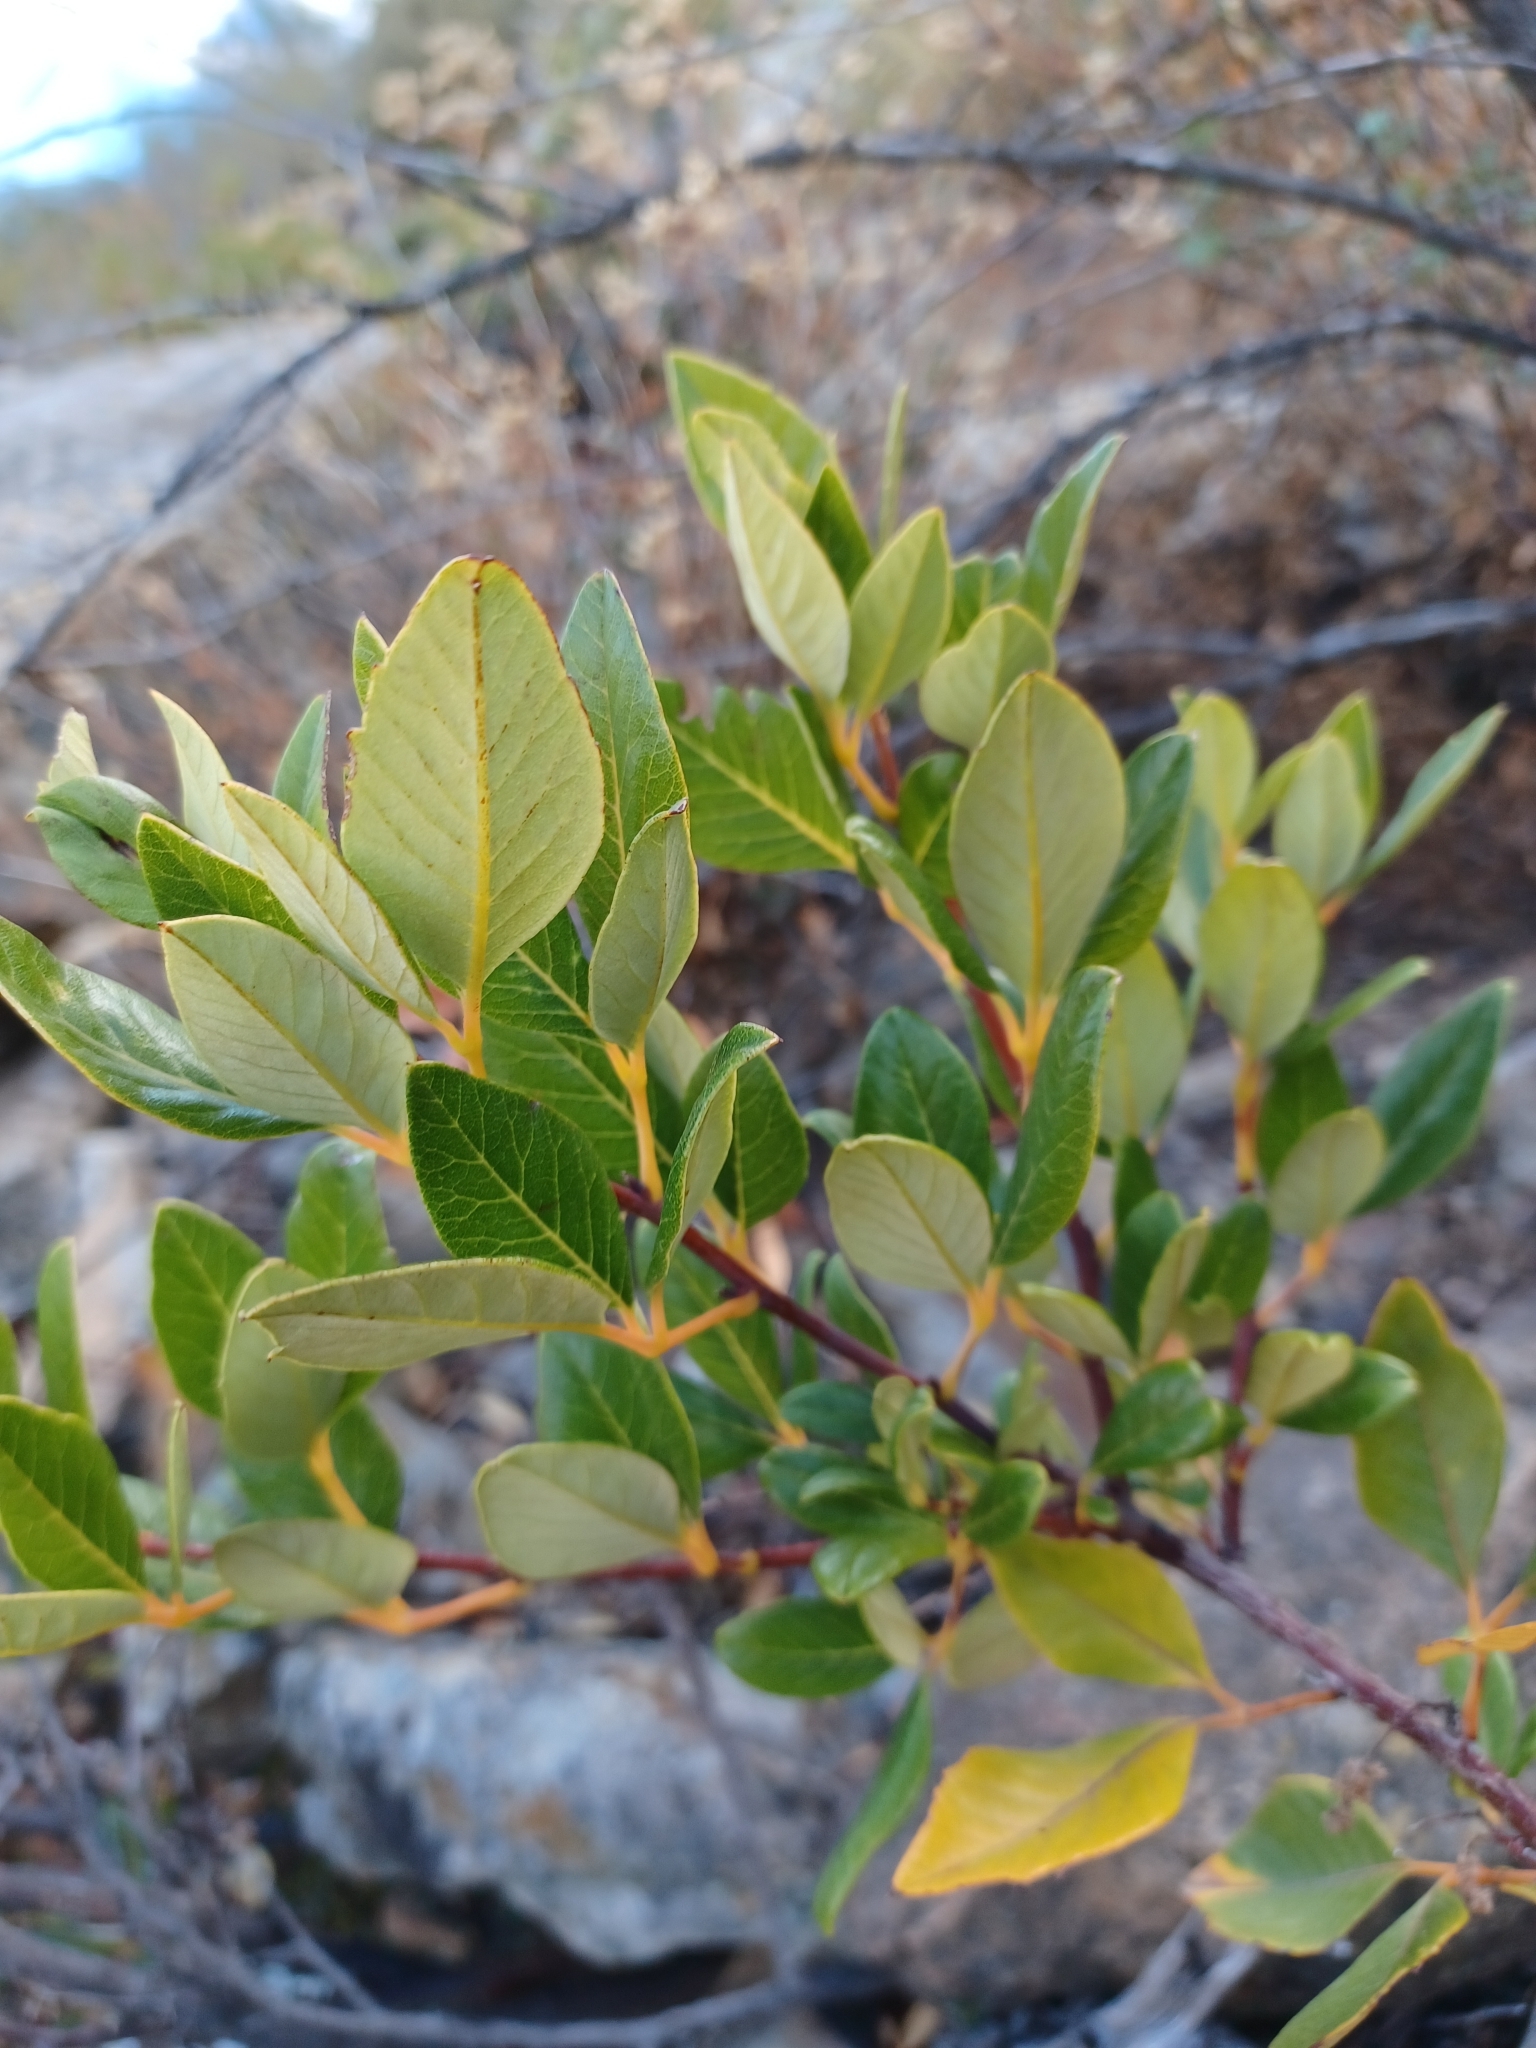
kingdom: Plantae
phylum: Tracheophyta
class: Magnoliopsida
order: Sapindales
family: Anacardiaceae
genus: Searsia
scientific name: Searsia tomentosa
